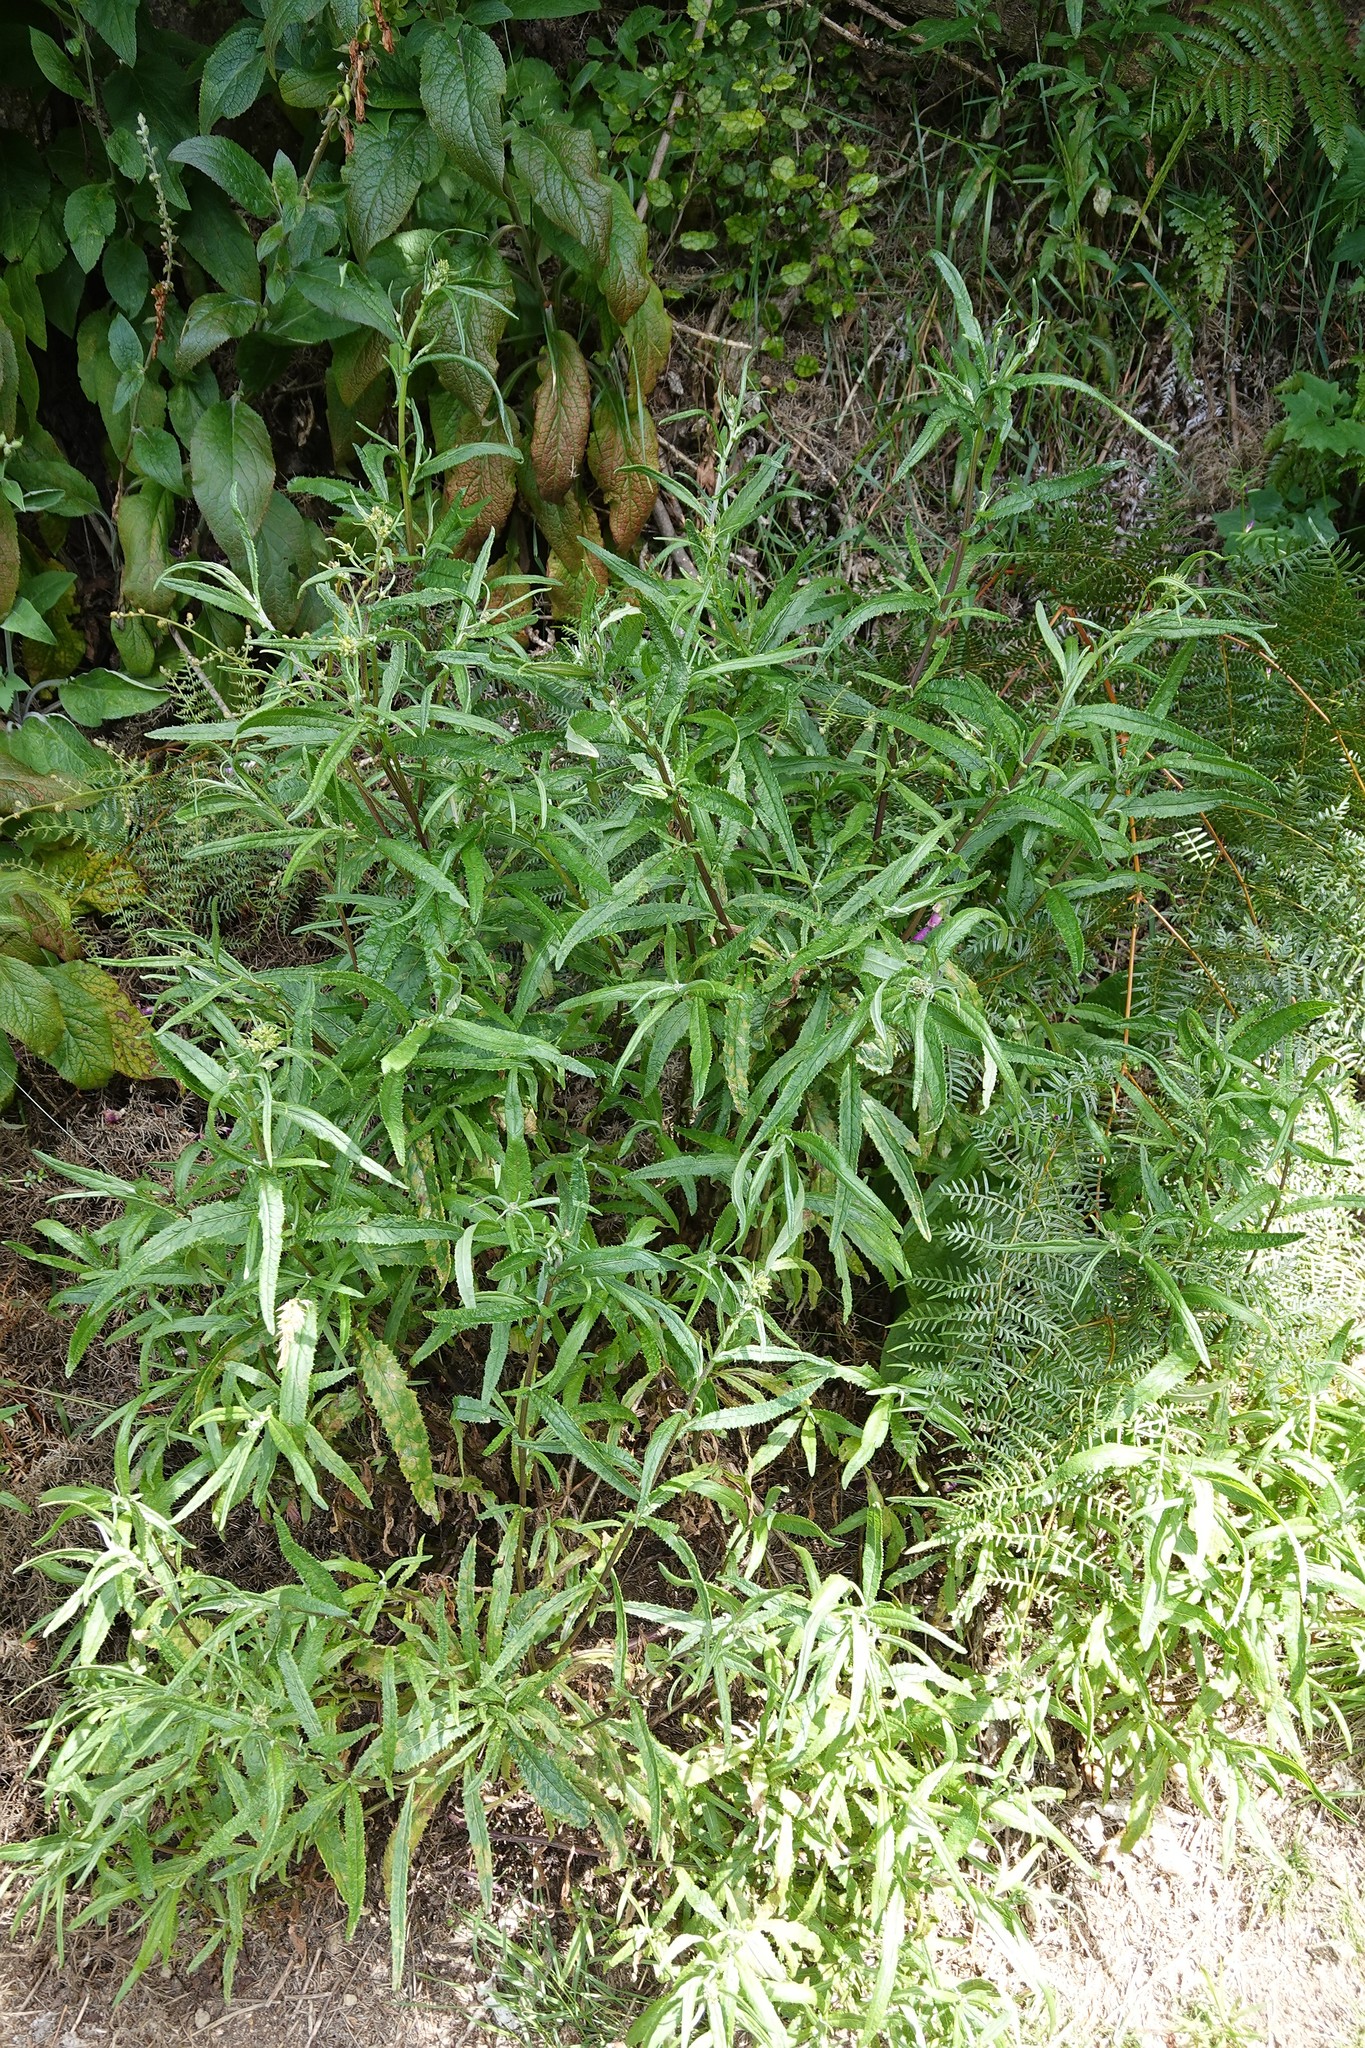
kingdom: Plantae
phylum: Tracheophyta
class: Magnoliopsida
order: Asterales
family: Asteraceae
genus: Senecio
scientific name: Senecio minimus
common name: Toothed fireweed
